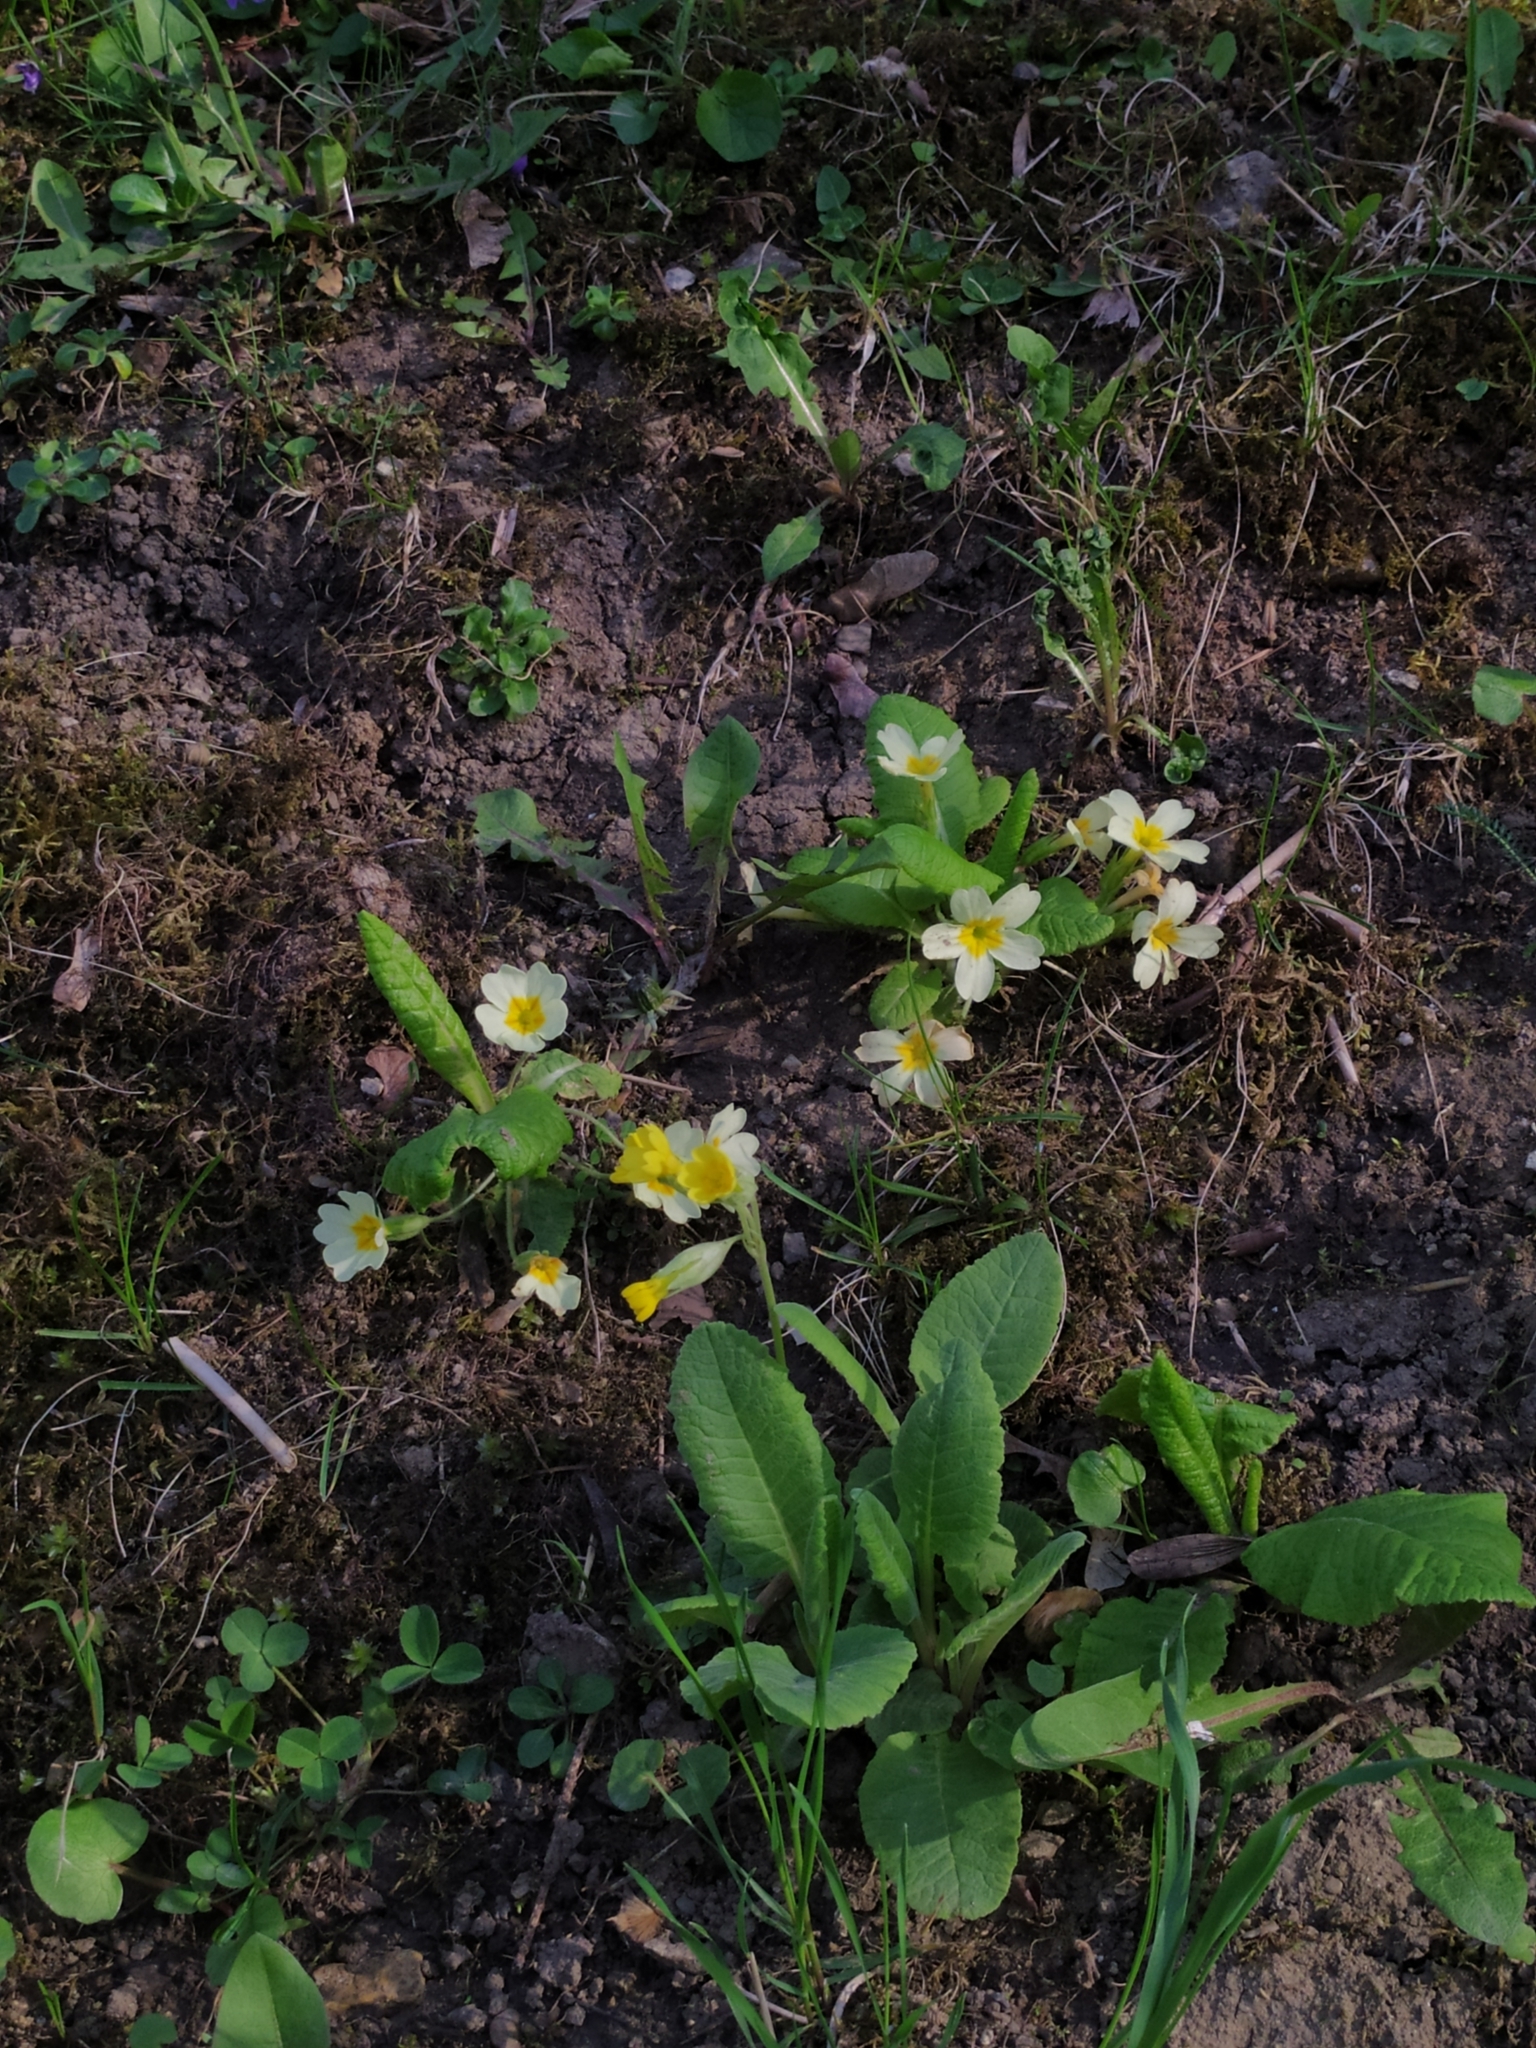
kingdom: Plantae
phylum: Tracheophyta
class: Magnoliopsida
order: Ericales
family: Primulaceae
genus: Primula
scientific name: Primula vulgaris
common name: Primrose
